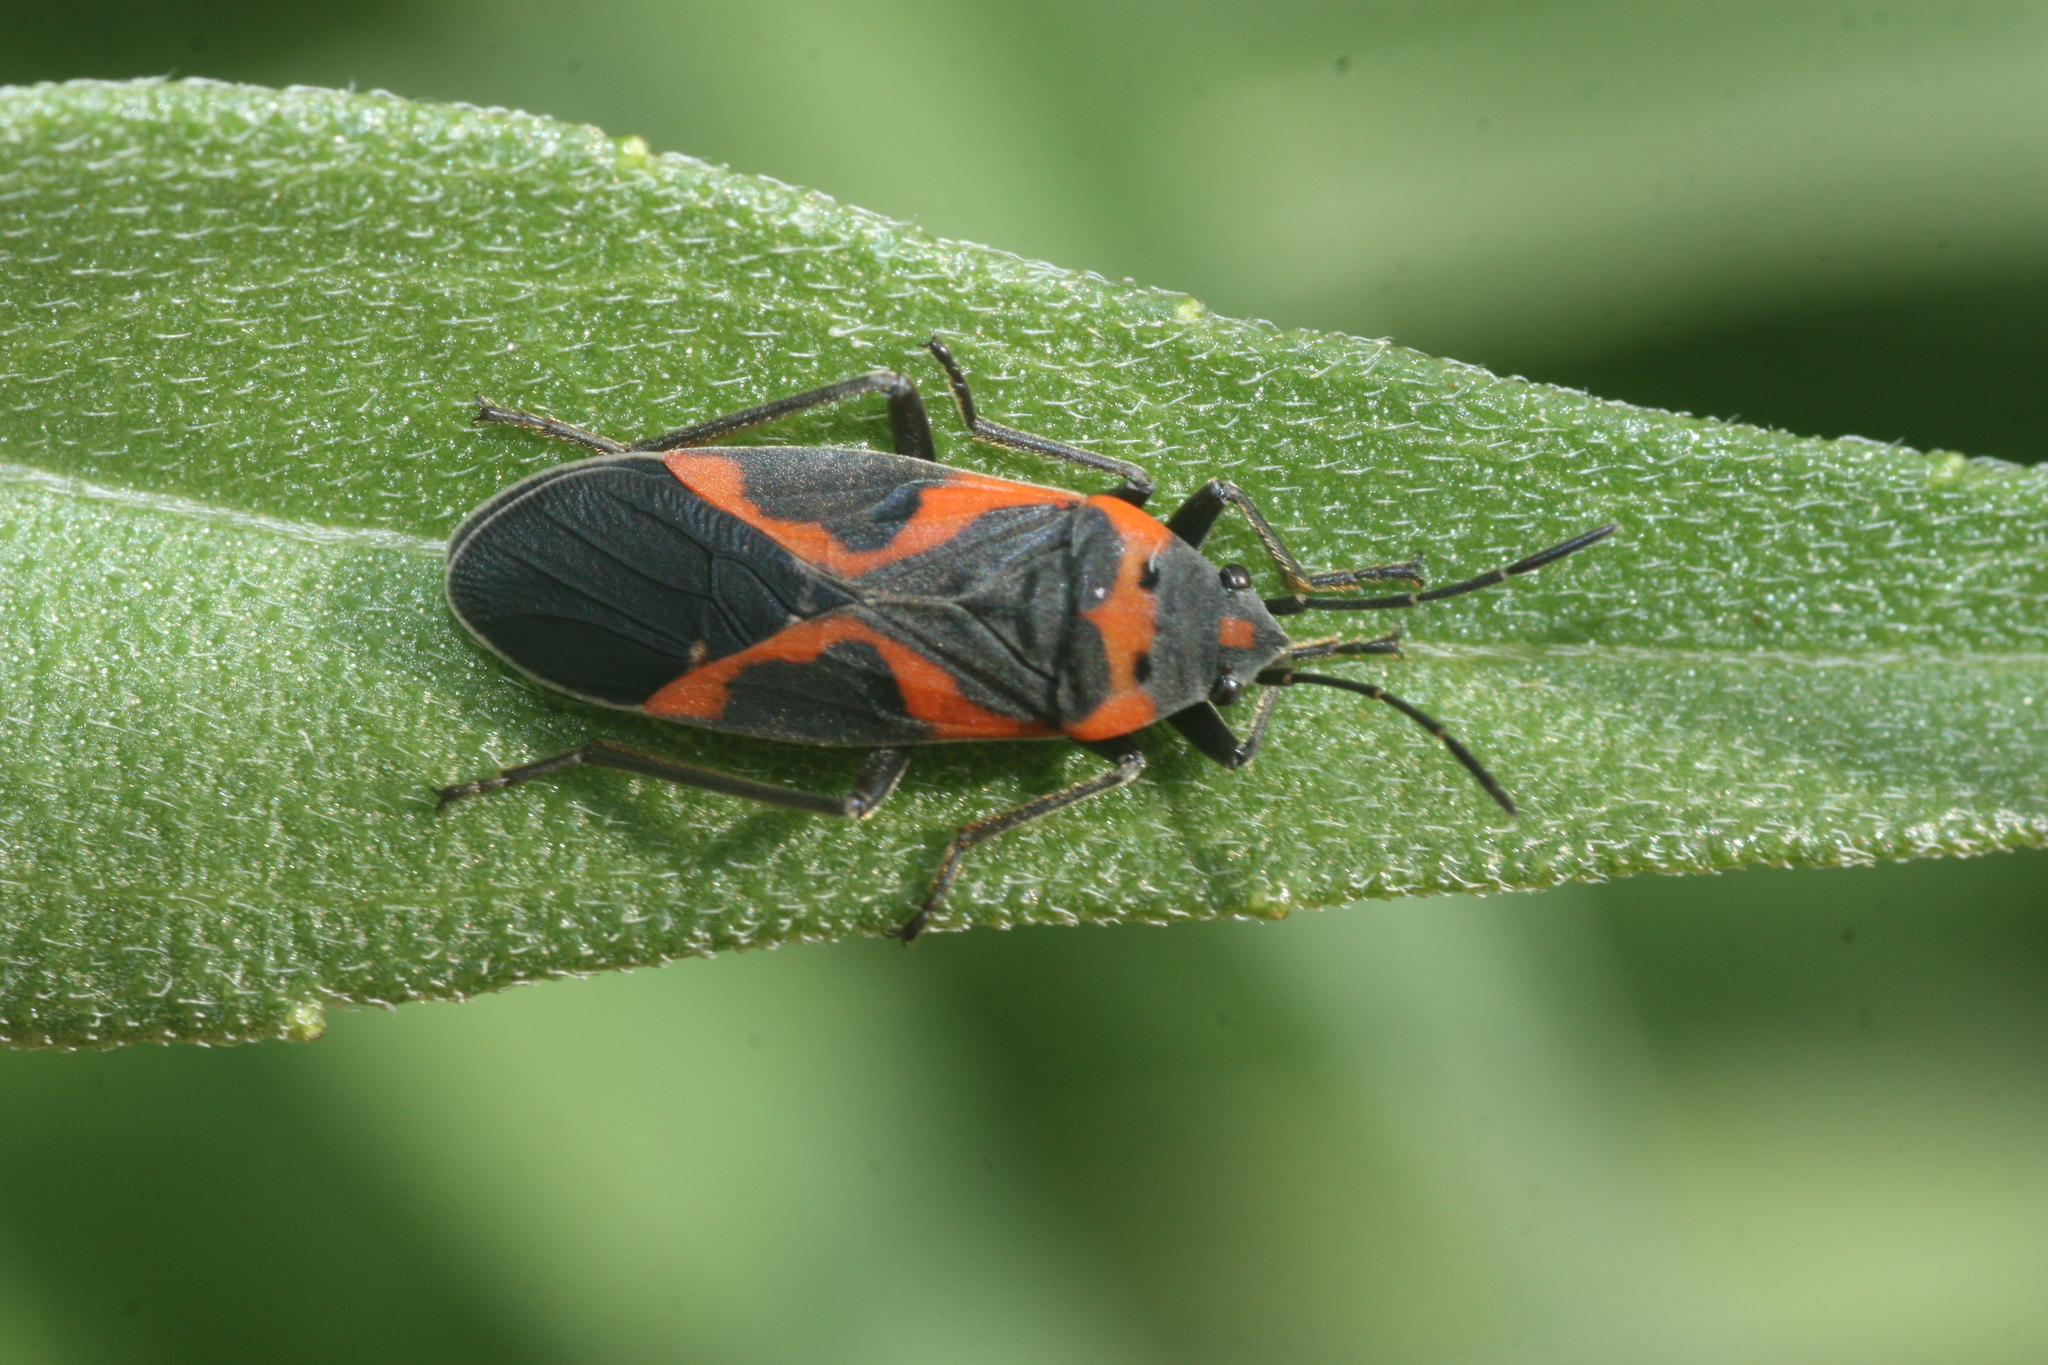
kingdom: Animalia
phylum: Arthropoda
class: Insecta
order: Hemiptera
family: Lygaeidae
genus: Lygaeus
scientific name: Lygaeus kalmii
